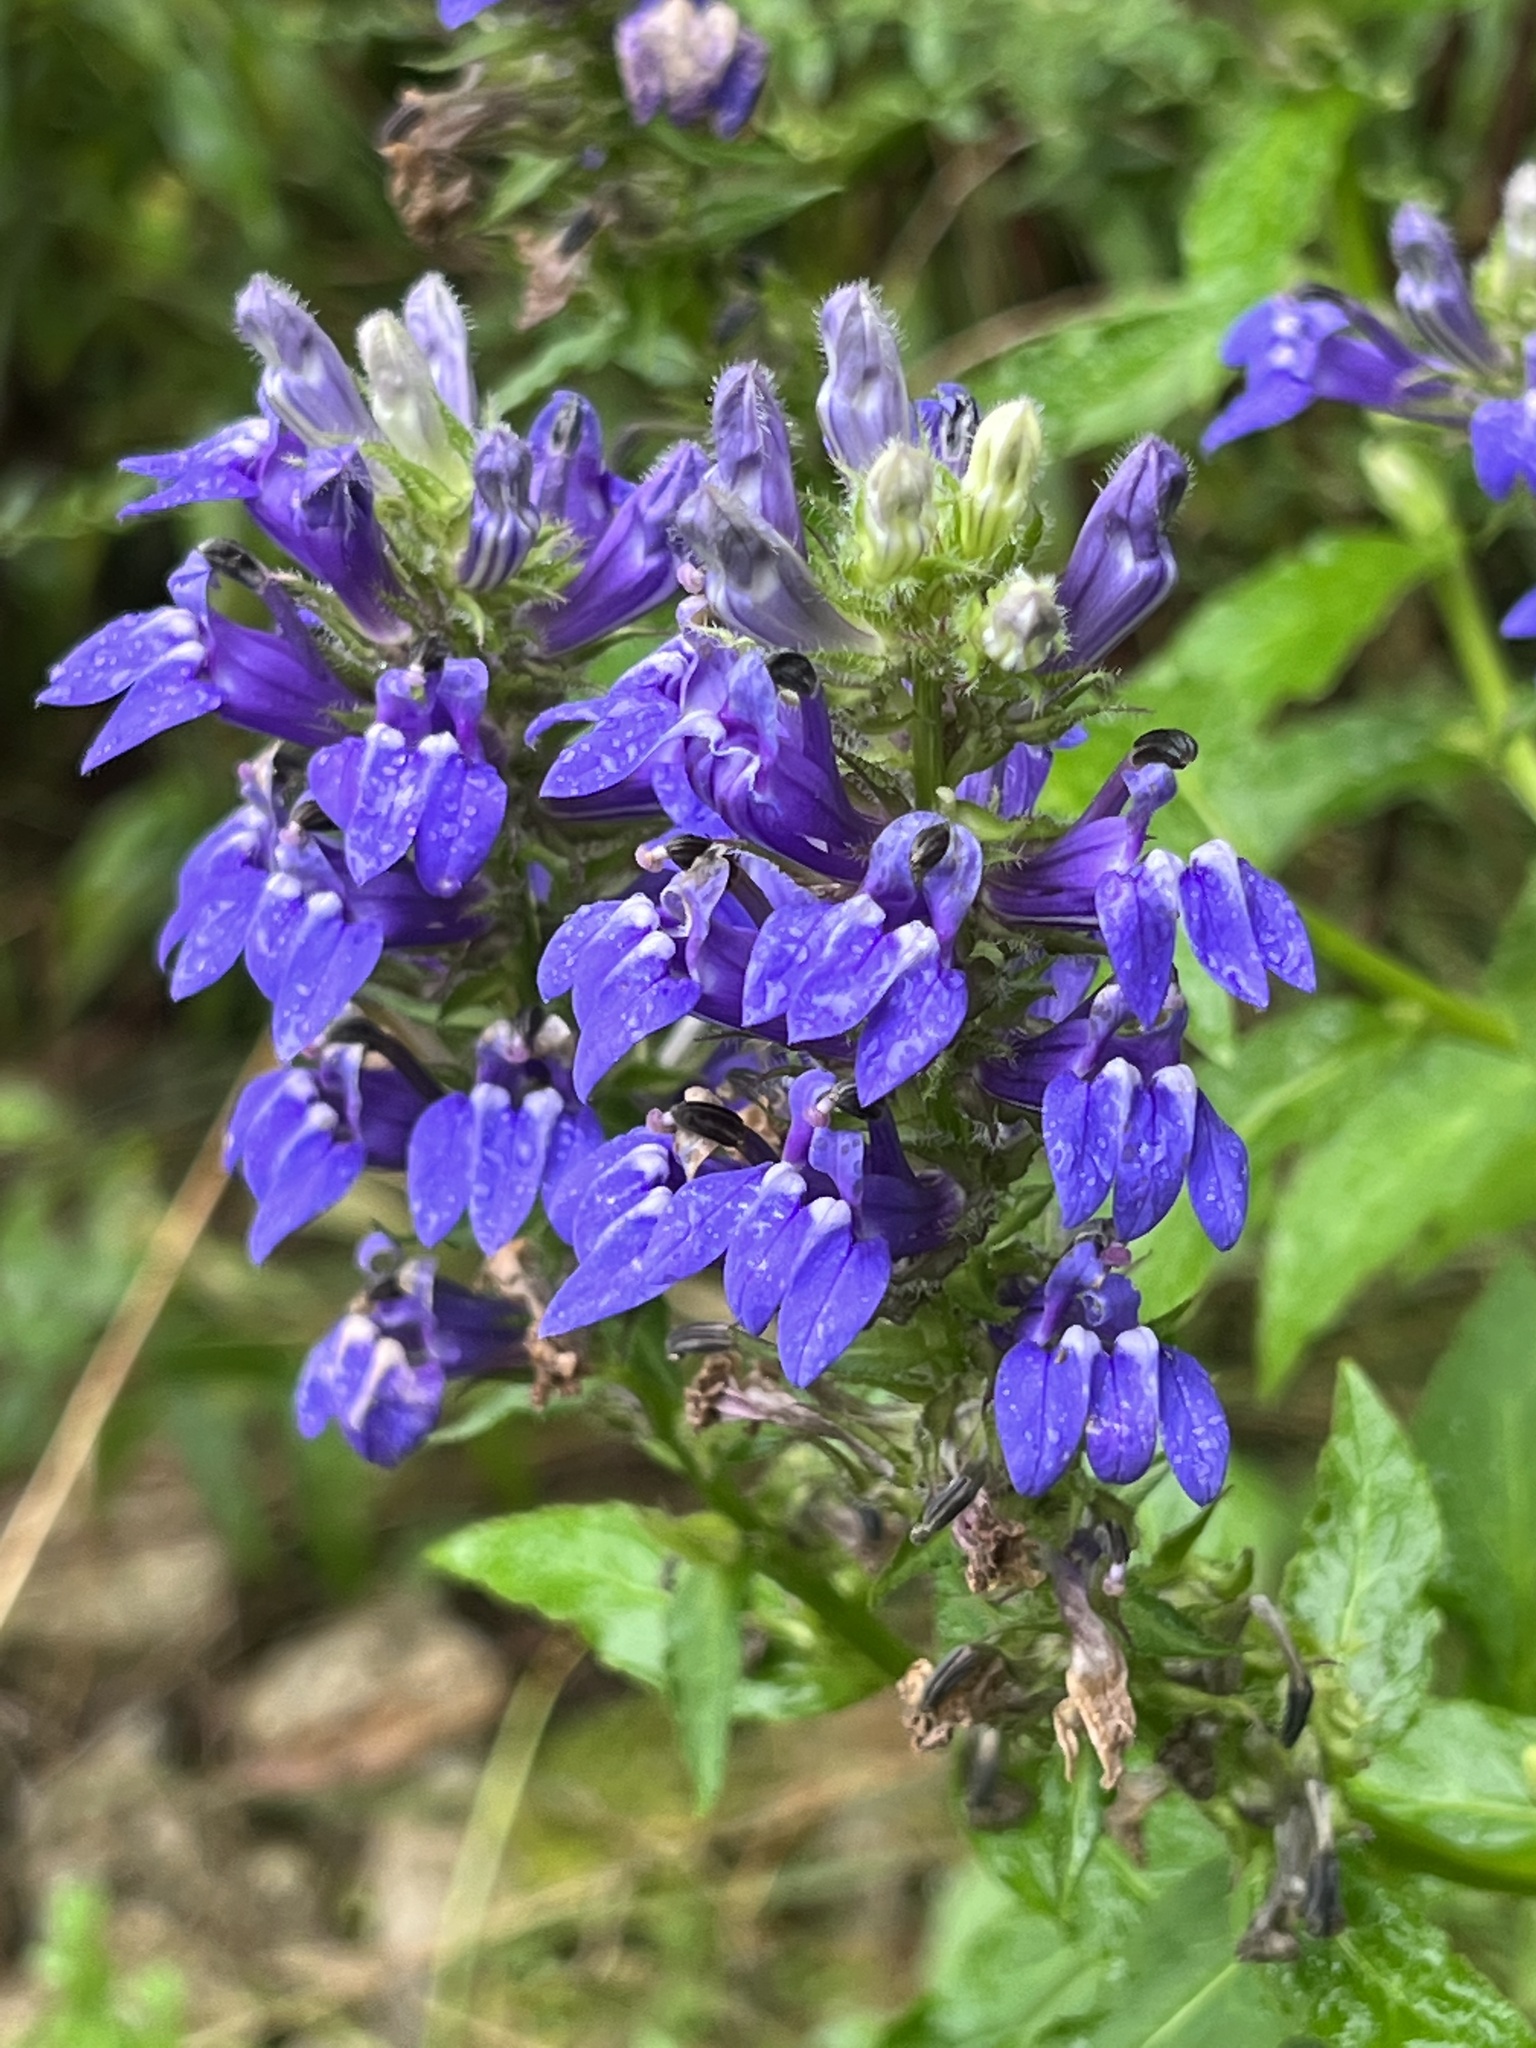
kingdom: Plantae
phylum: Tracheophyta
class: Magnoliopsida
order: Asterales
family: Campanulaceae
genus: Lobelia
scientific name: Lobelia siphilitica
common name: Great lobelia
